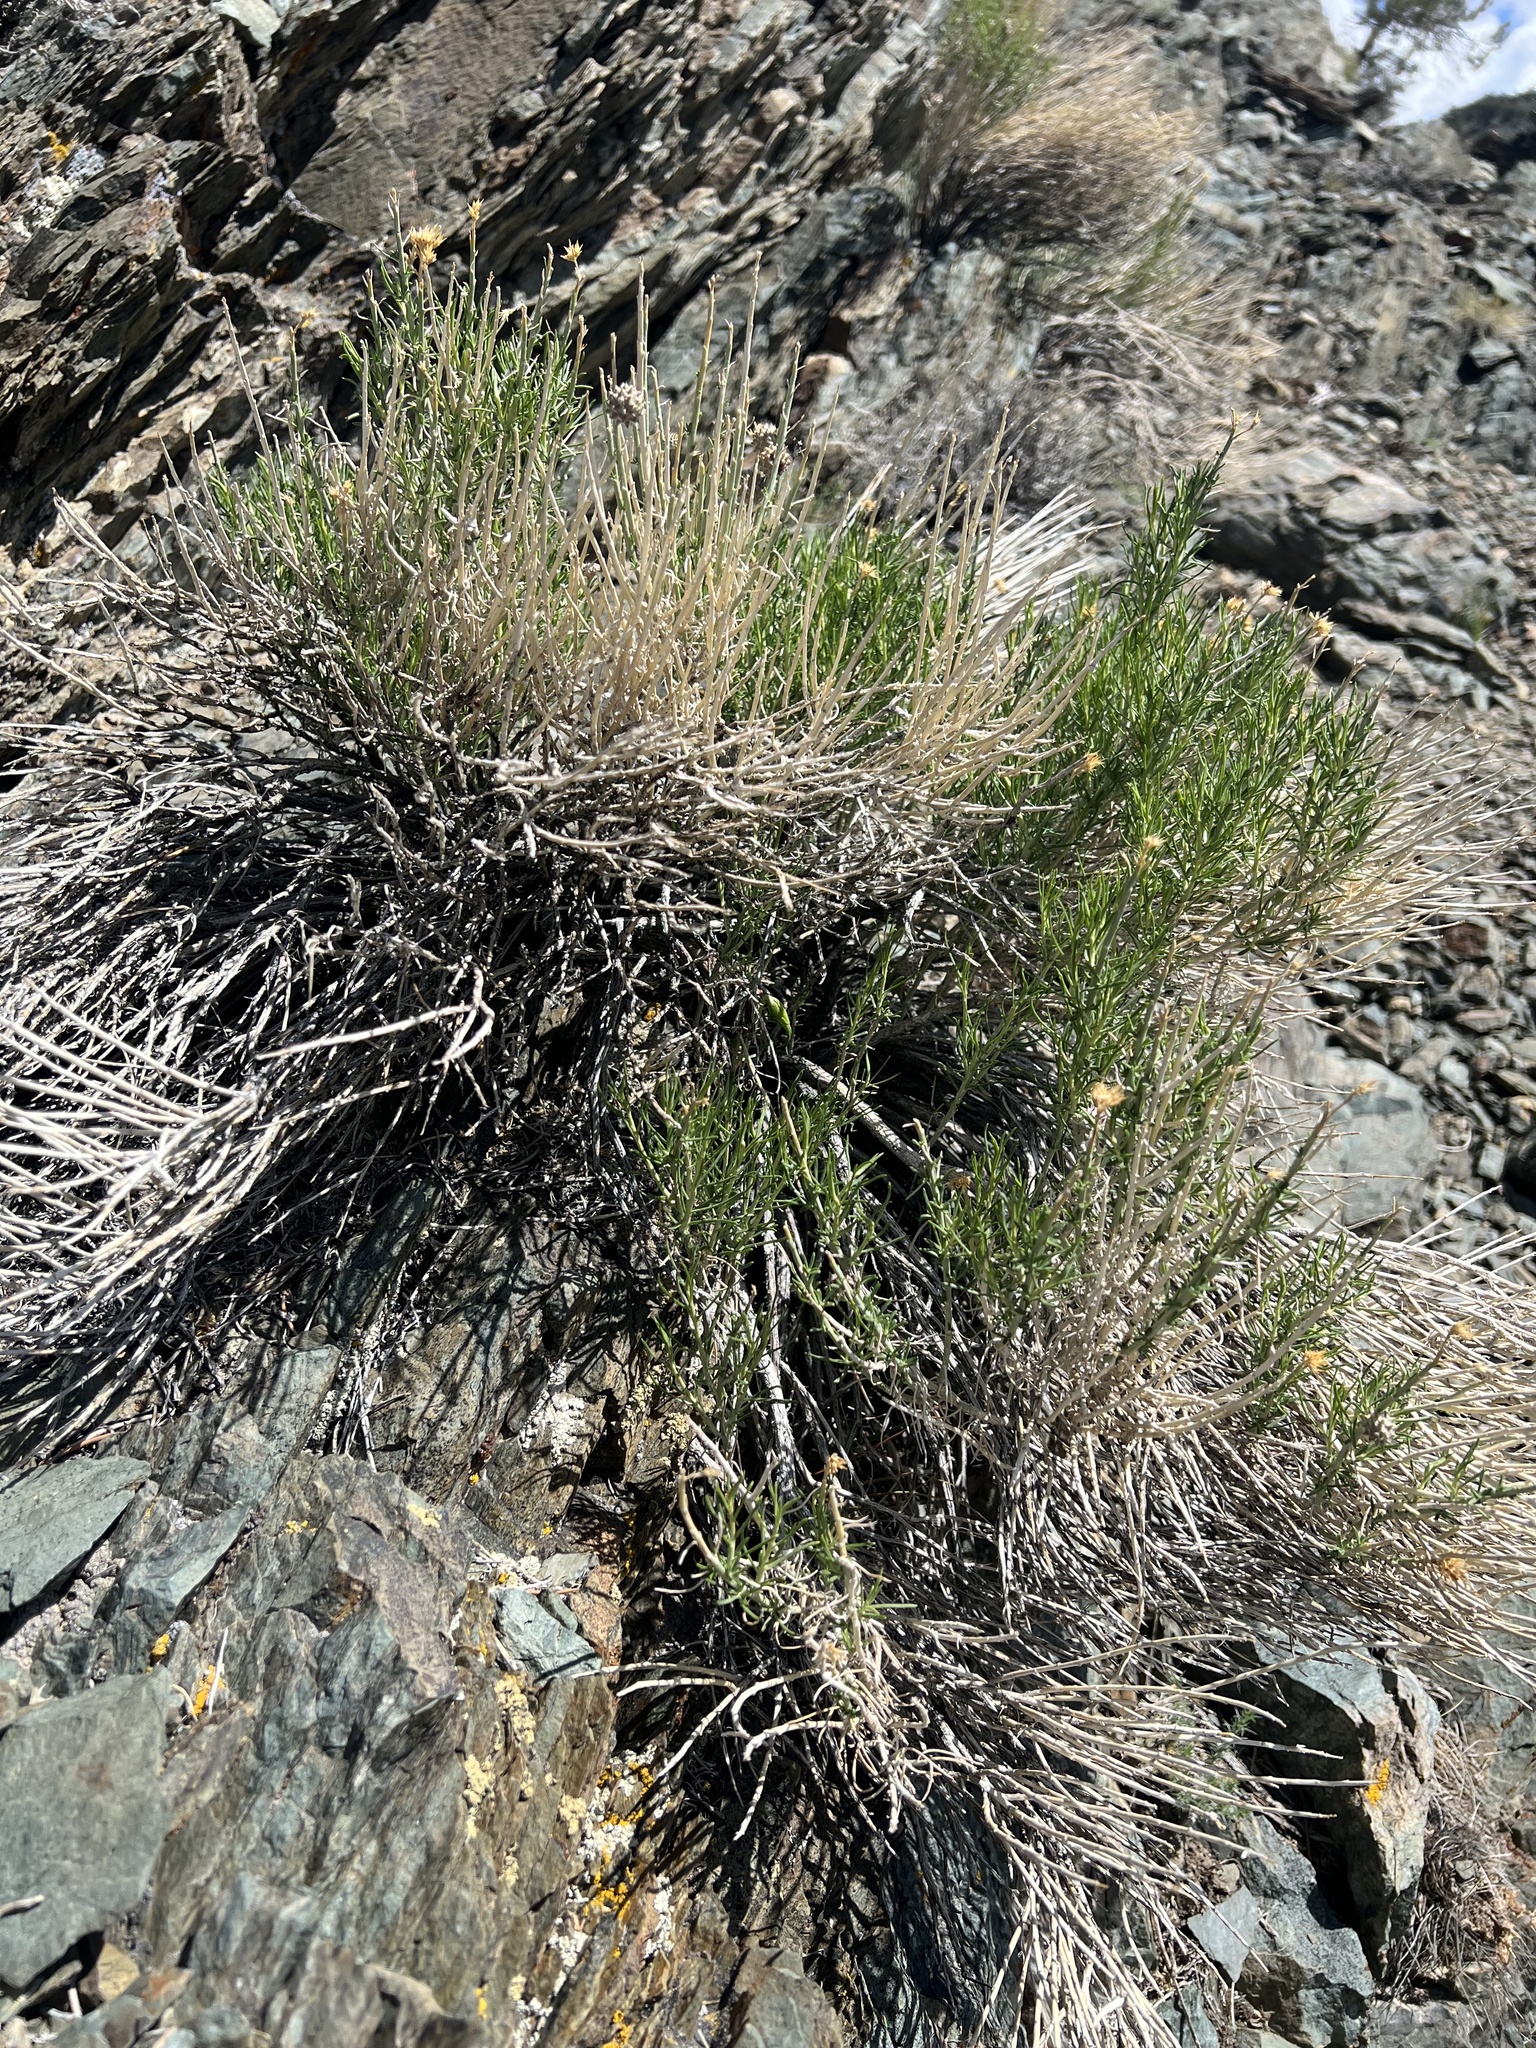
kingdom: Plantae
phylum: Tracheophyta
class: Magnoliopsida
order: Asterales
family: Asteraceae
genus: Ericameria
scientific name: Ericameria nauseosa
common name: Rubber rabbitbrush
